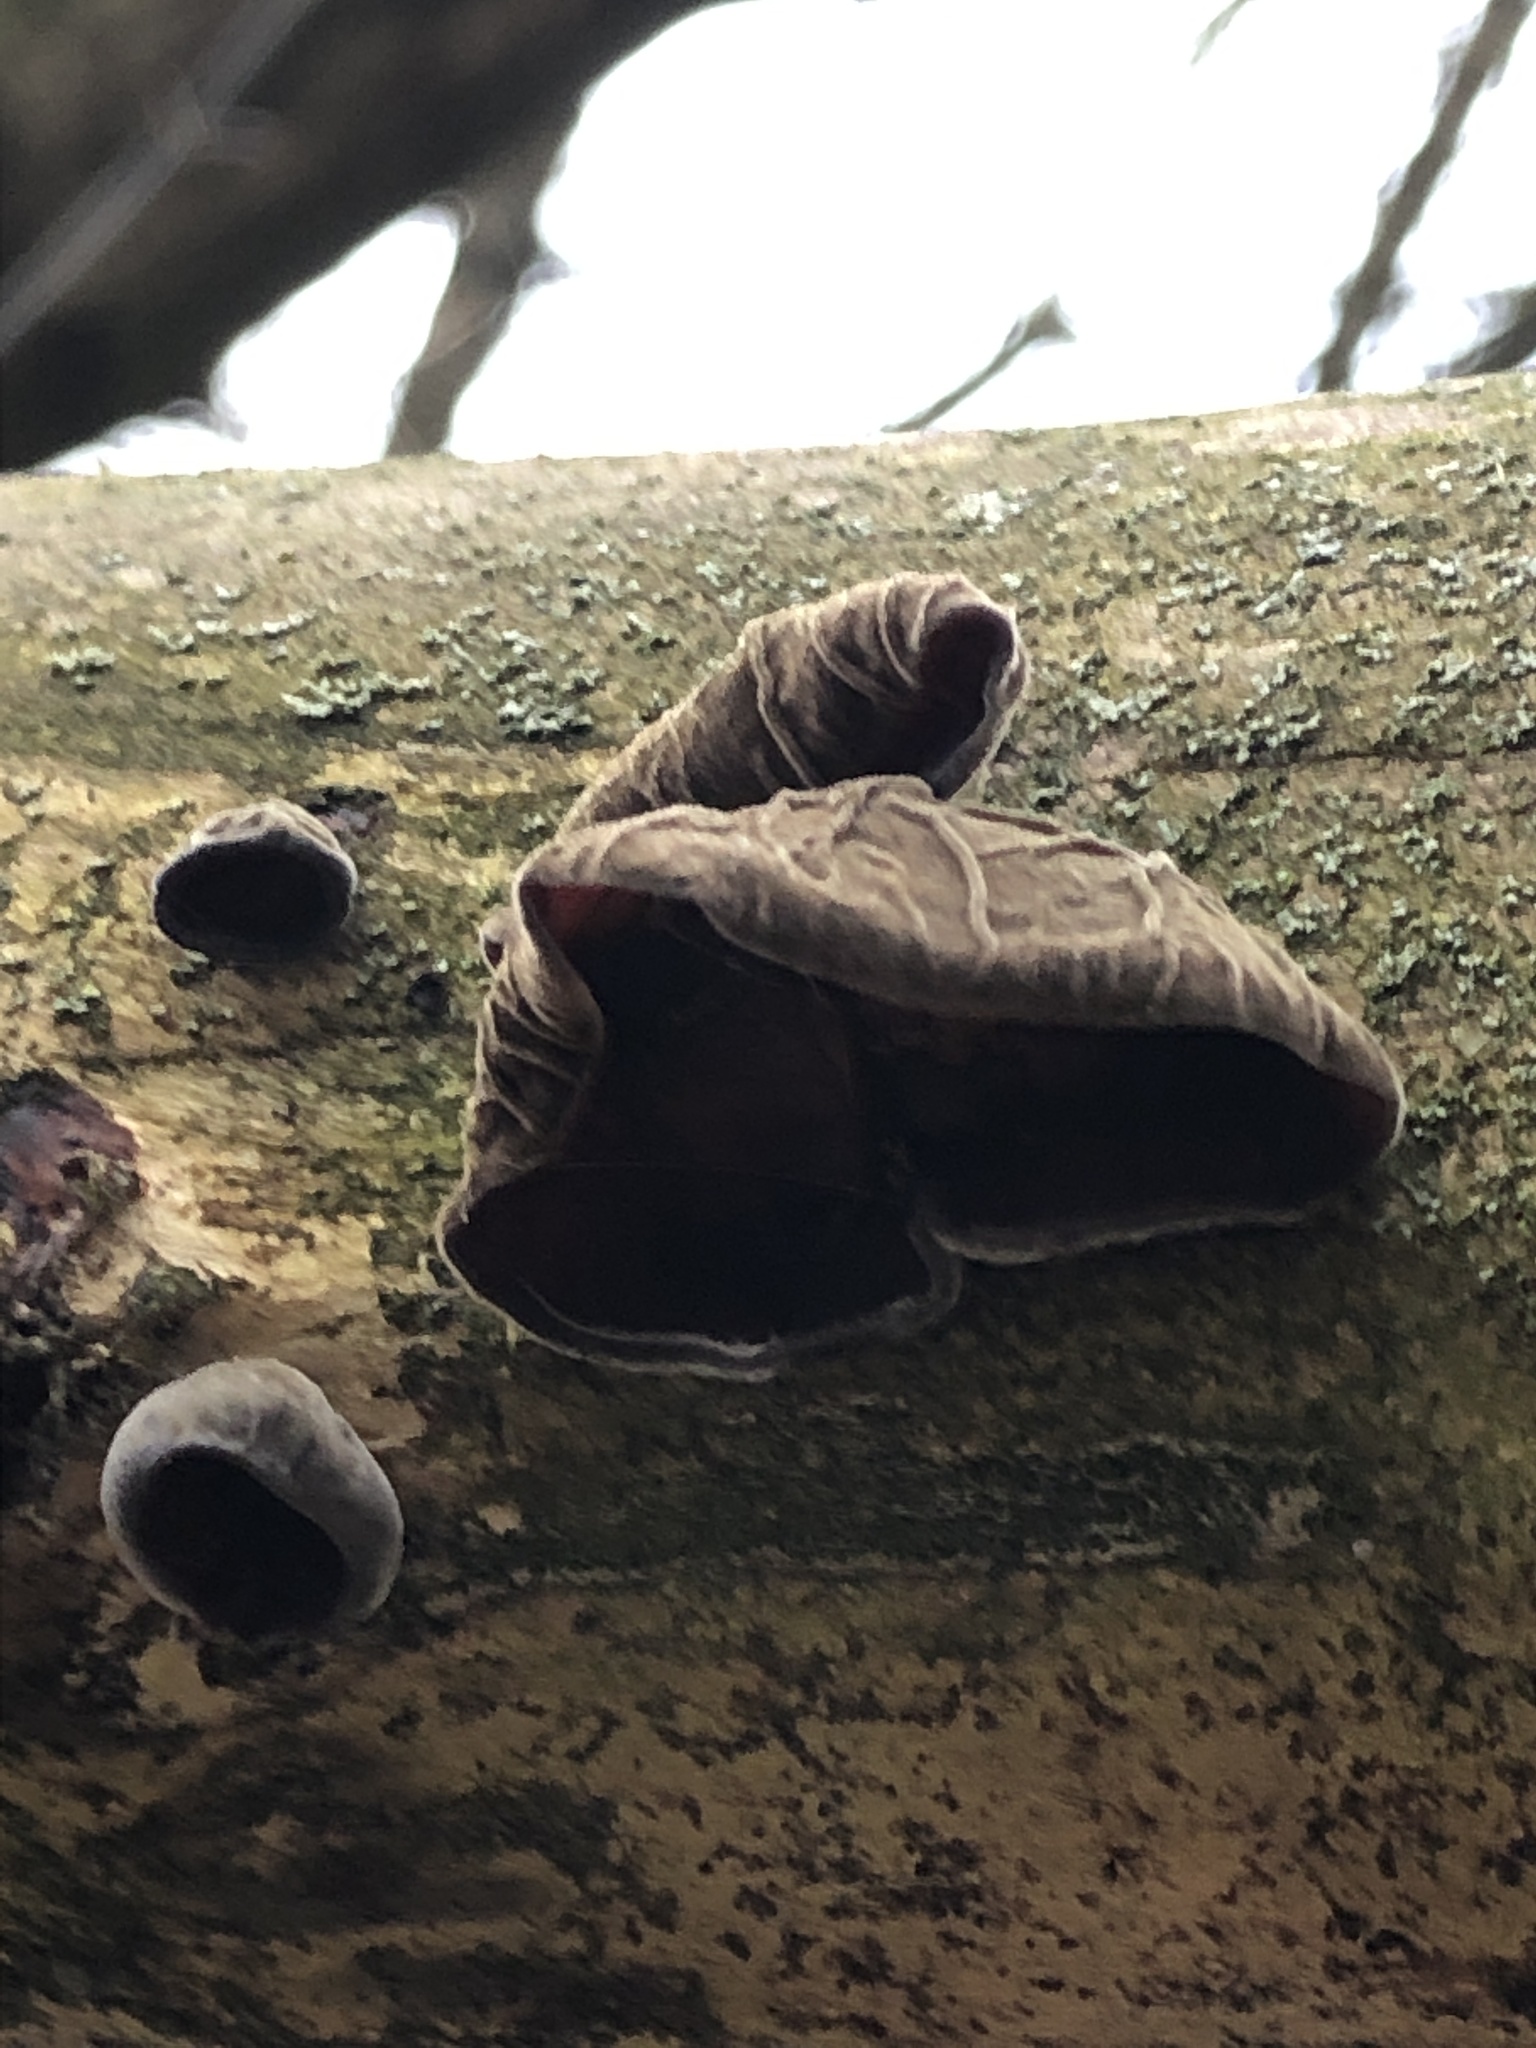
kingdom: Fungi
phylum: Basidiomycota
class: Agaricomycetes
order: Auriculariales
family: Auriculariaceae
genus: Auricularia
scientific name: Auricularia auricula-judae
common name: Jelly ear
